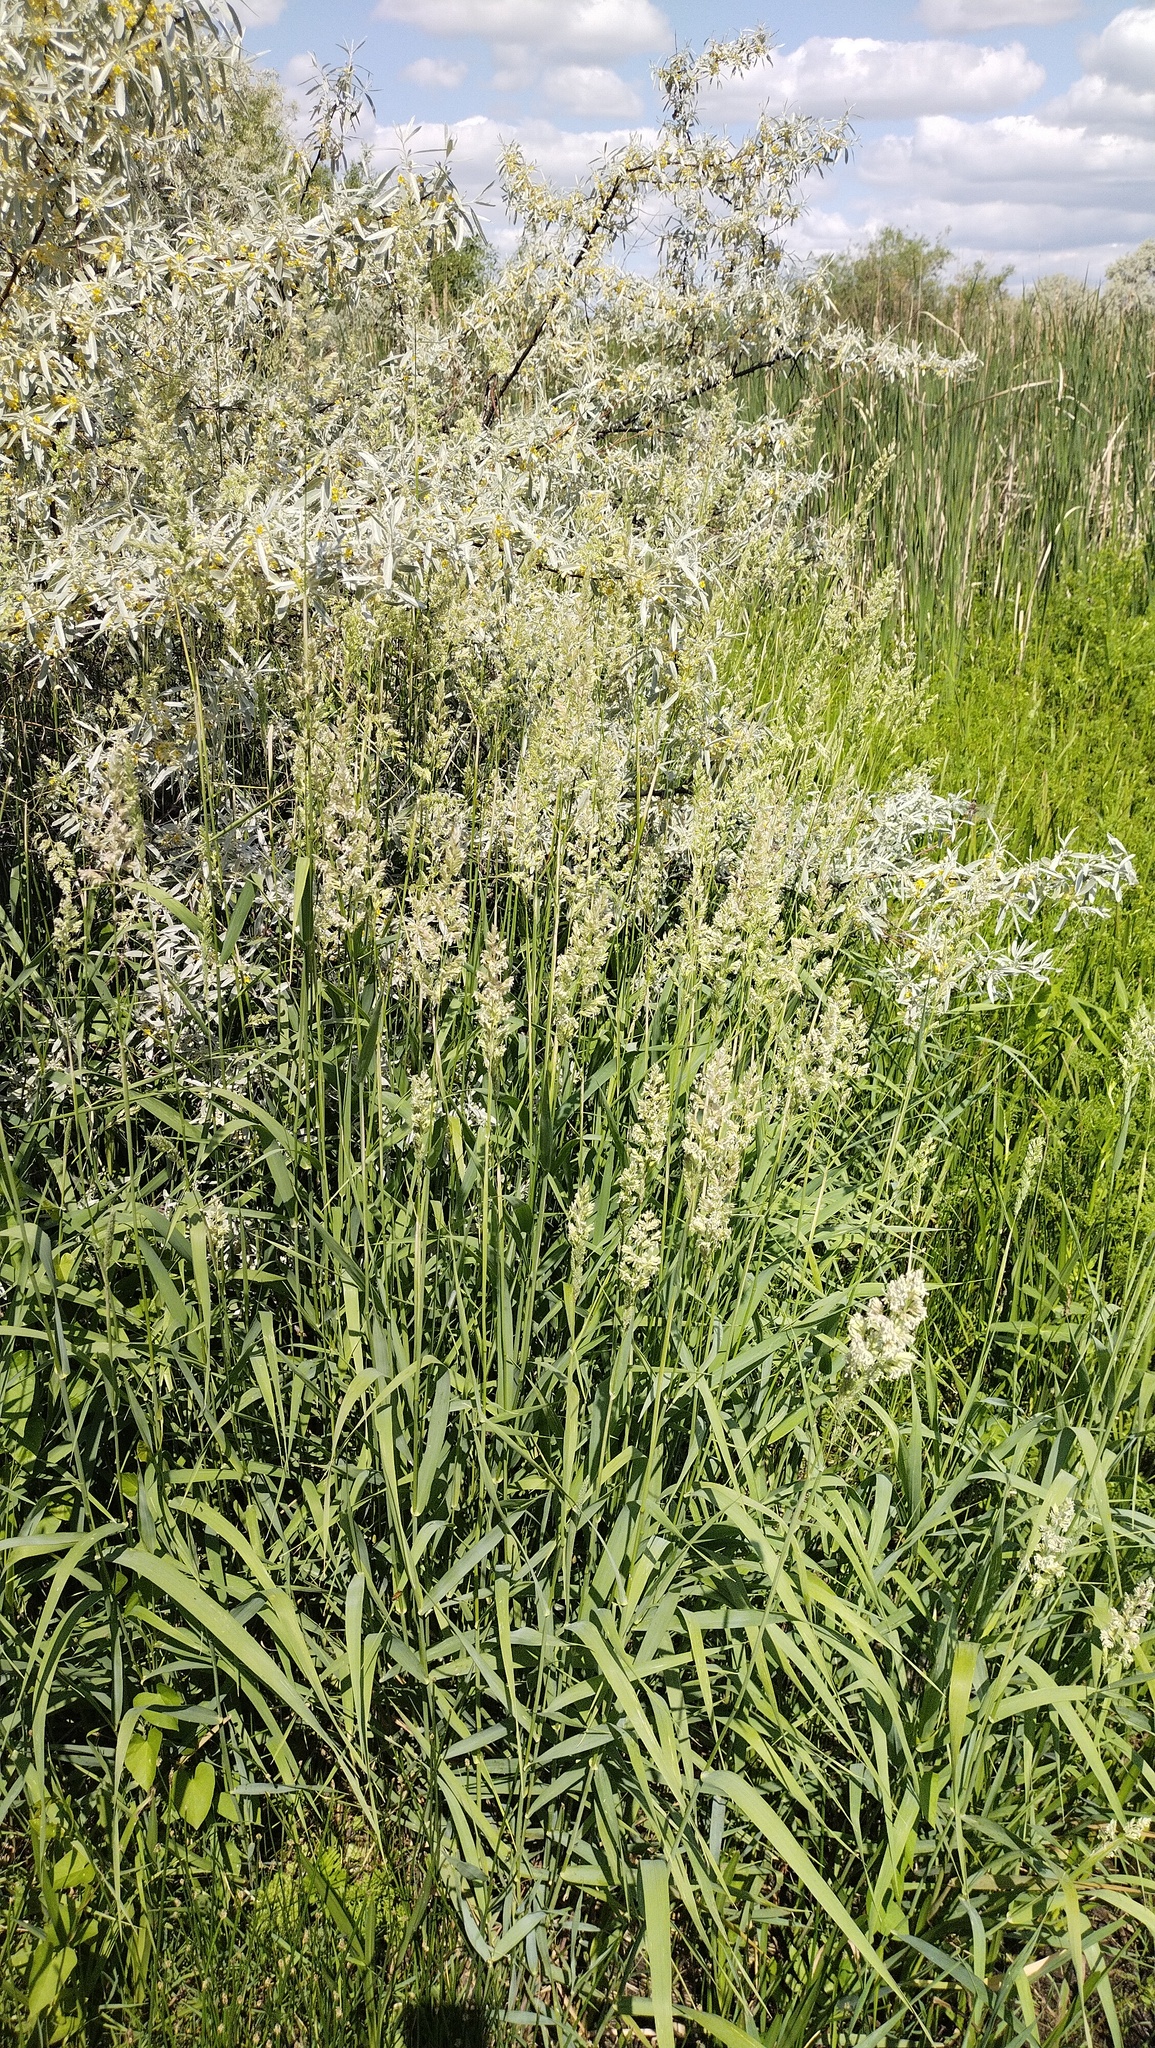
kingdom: Plantae
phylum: Tracheophyta
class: Liliopsida
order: Poales
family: Poaceae
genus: Phalaris
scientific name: Phalaris arundinacea
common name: Reed canary-grass
